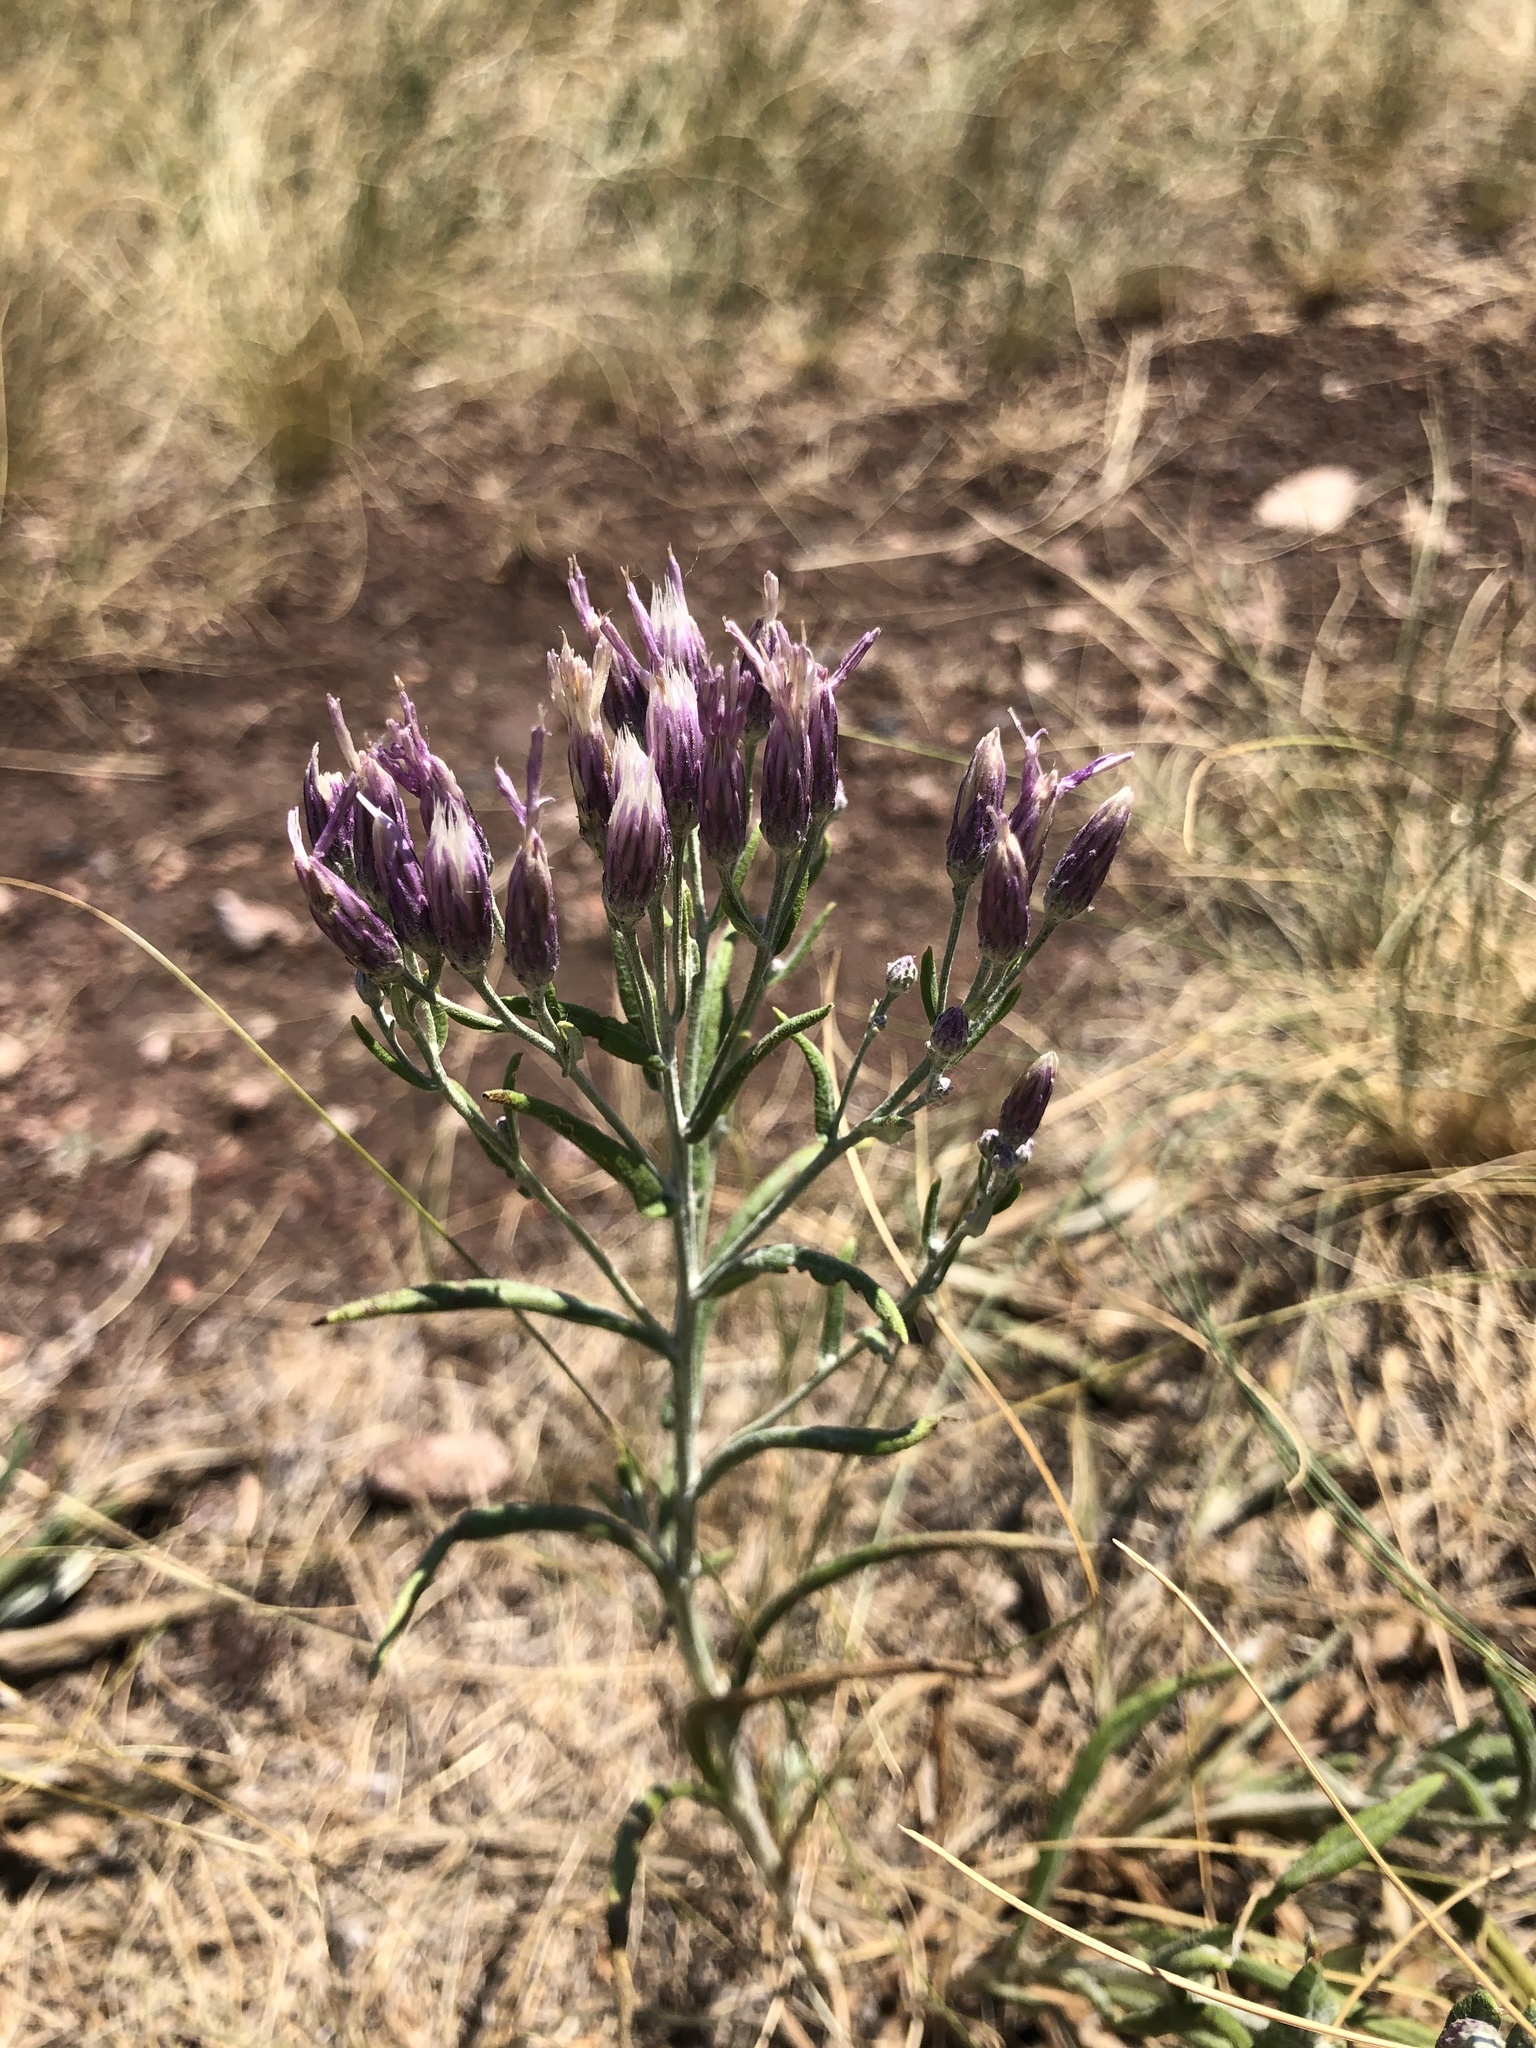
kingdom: Plantae
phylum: Tracheophyta
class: Magnoliopsida
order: Asterales
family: Asteraceae
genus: Jurinea
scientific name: Jurinea multiflora
